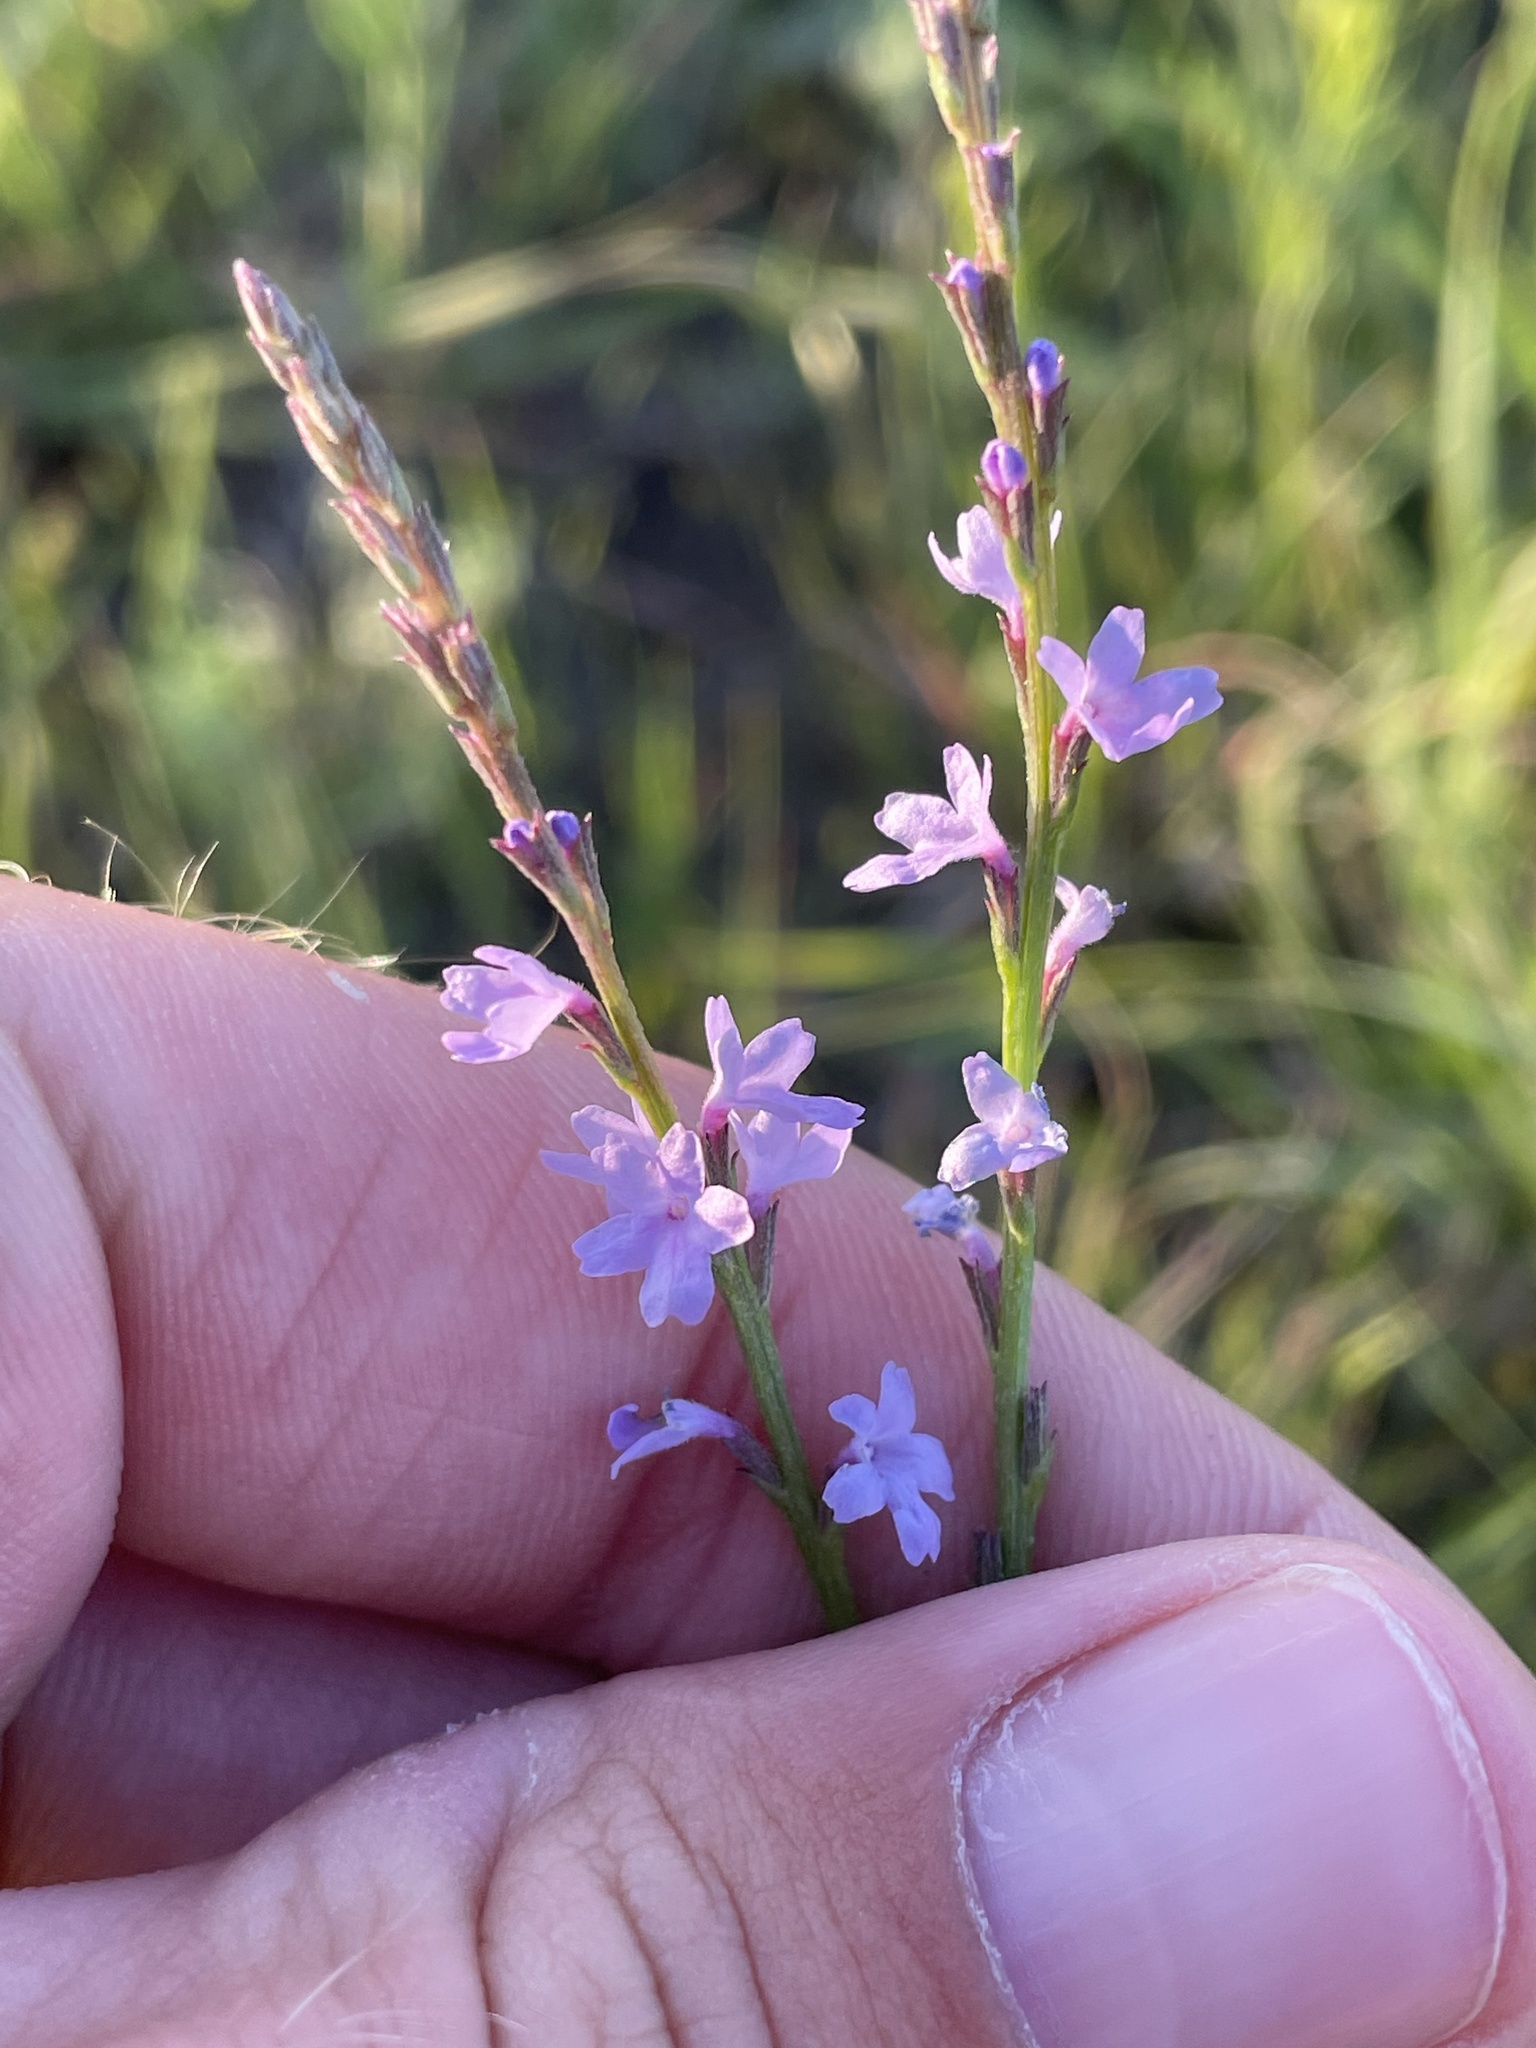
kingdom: Plantae
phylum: Tracheophyta
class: Magnoliopsida
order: Lamiales
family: Verbenaceae
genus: Verbena
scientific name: Verbena halei
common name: Texas vervain
